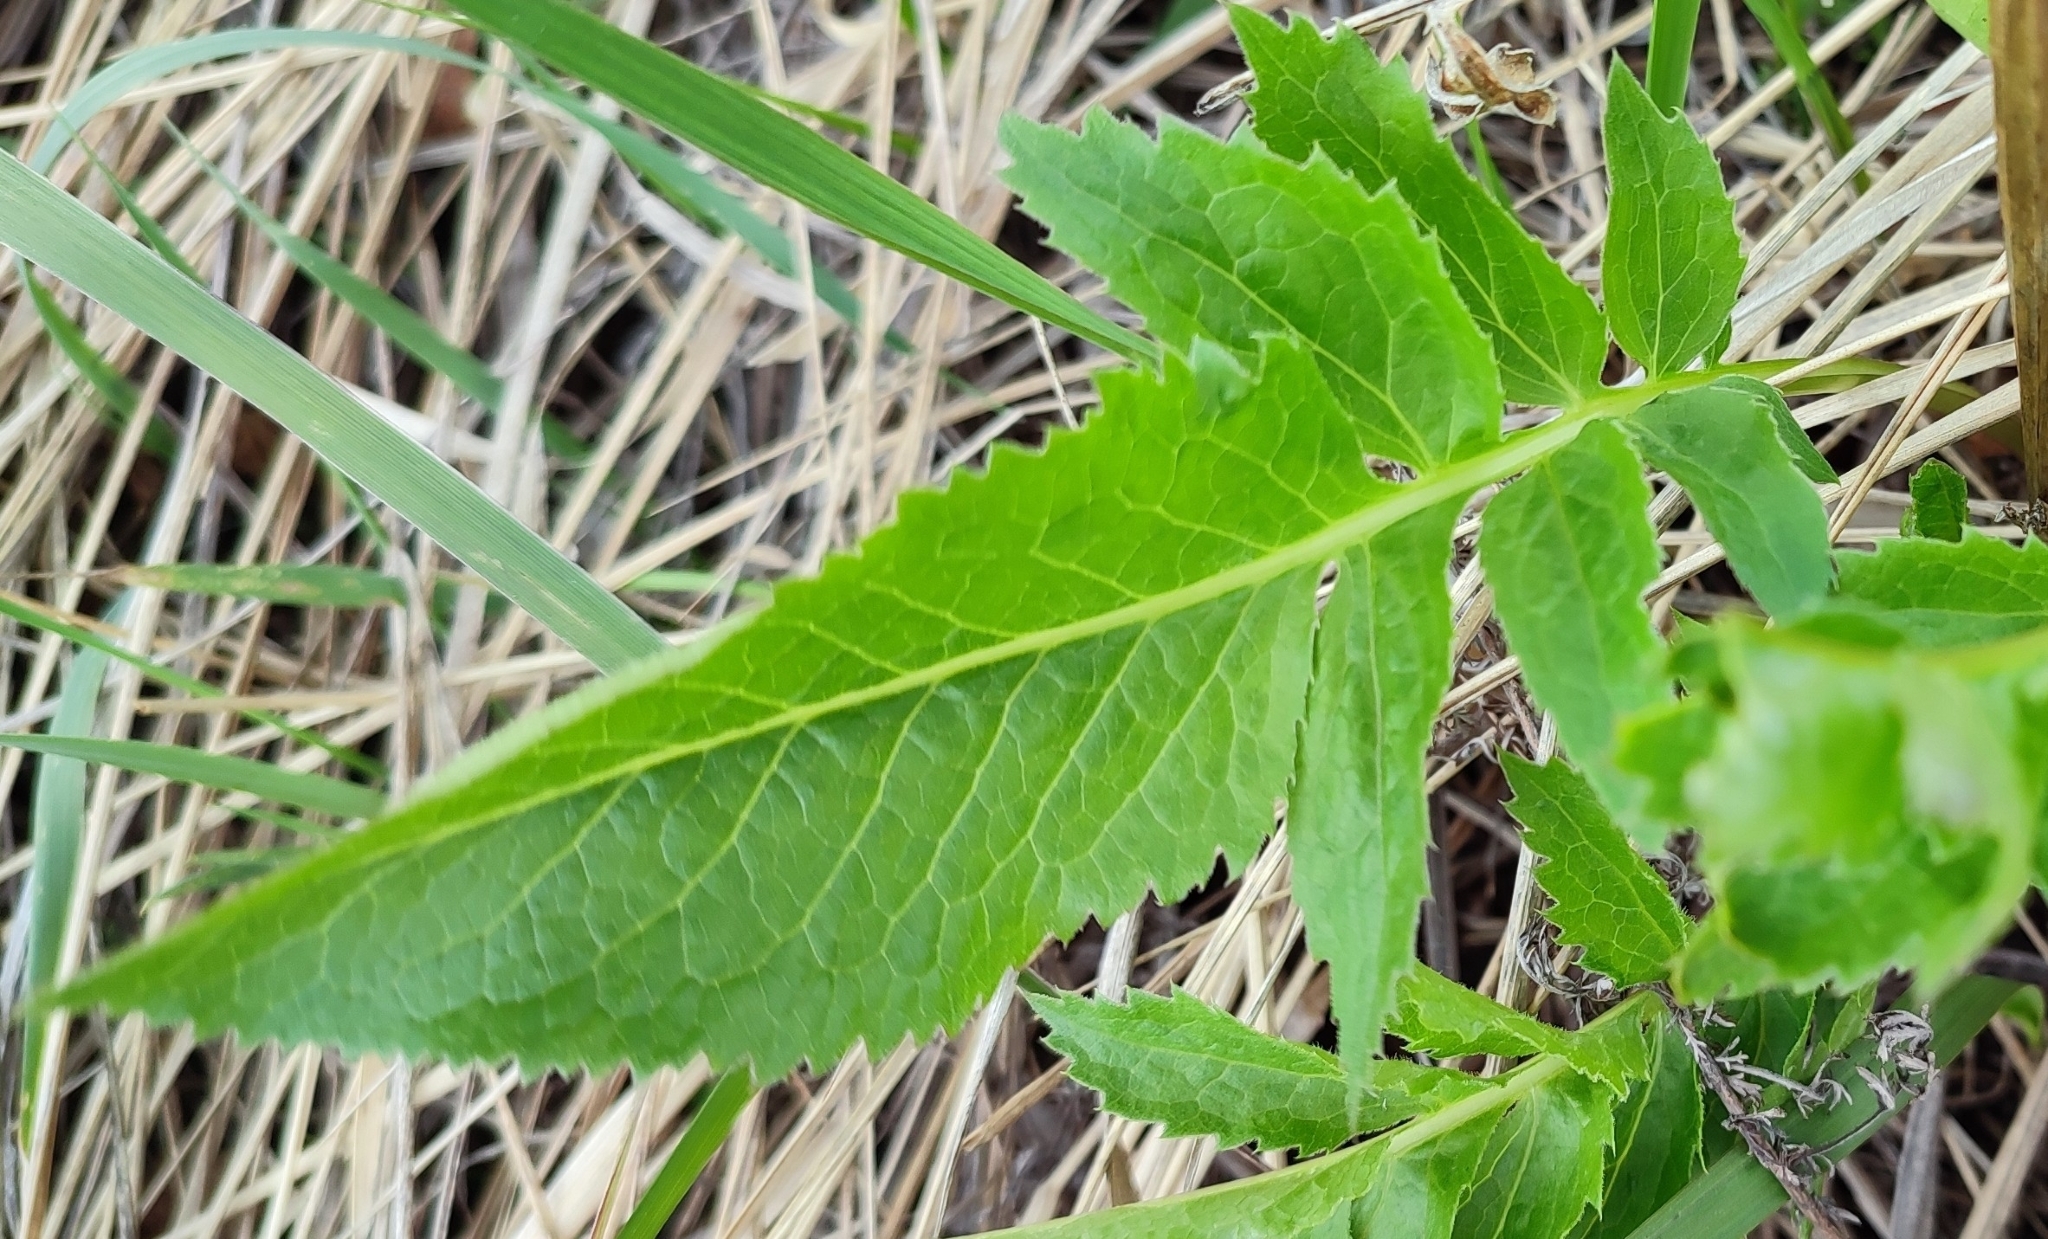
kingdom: Plantae
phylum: Tracheophyta
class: Magnoliopsida
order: Asterales
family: Asteraceae
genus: Serratula
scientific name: Serratula coronata
